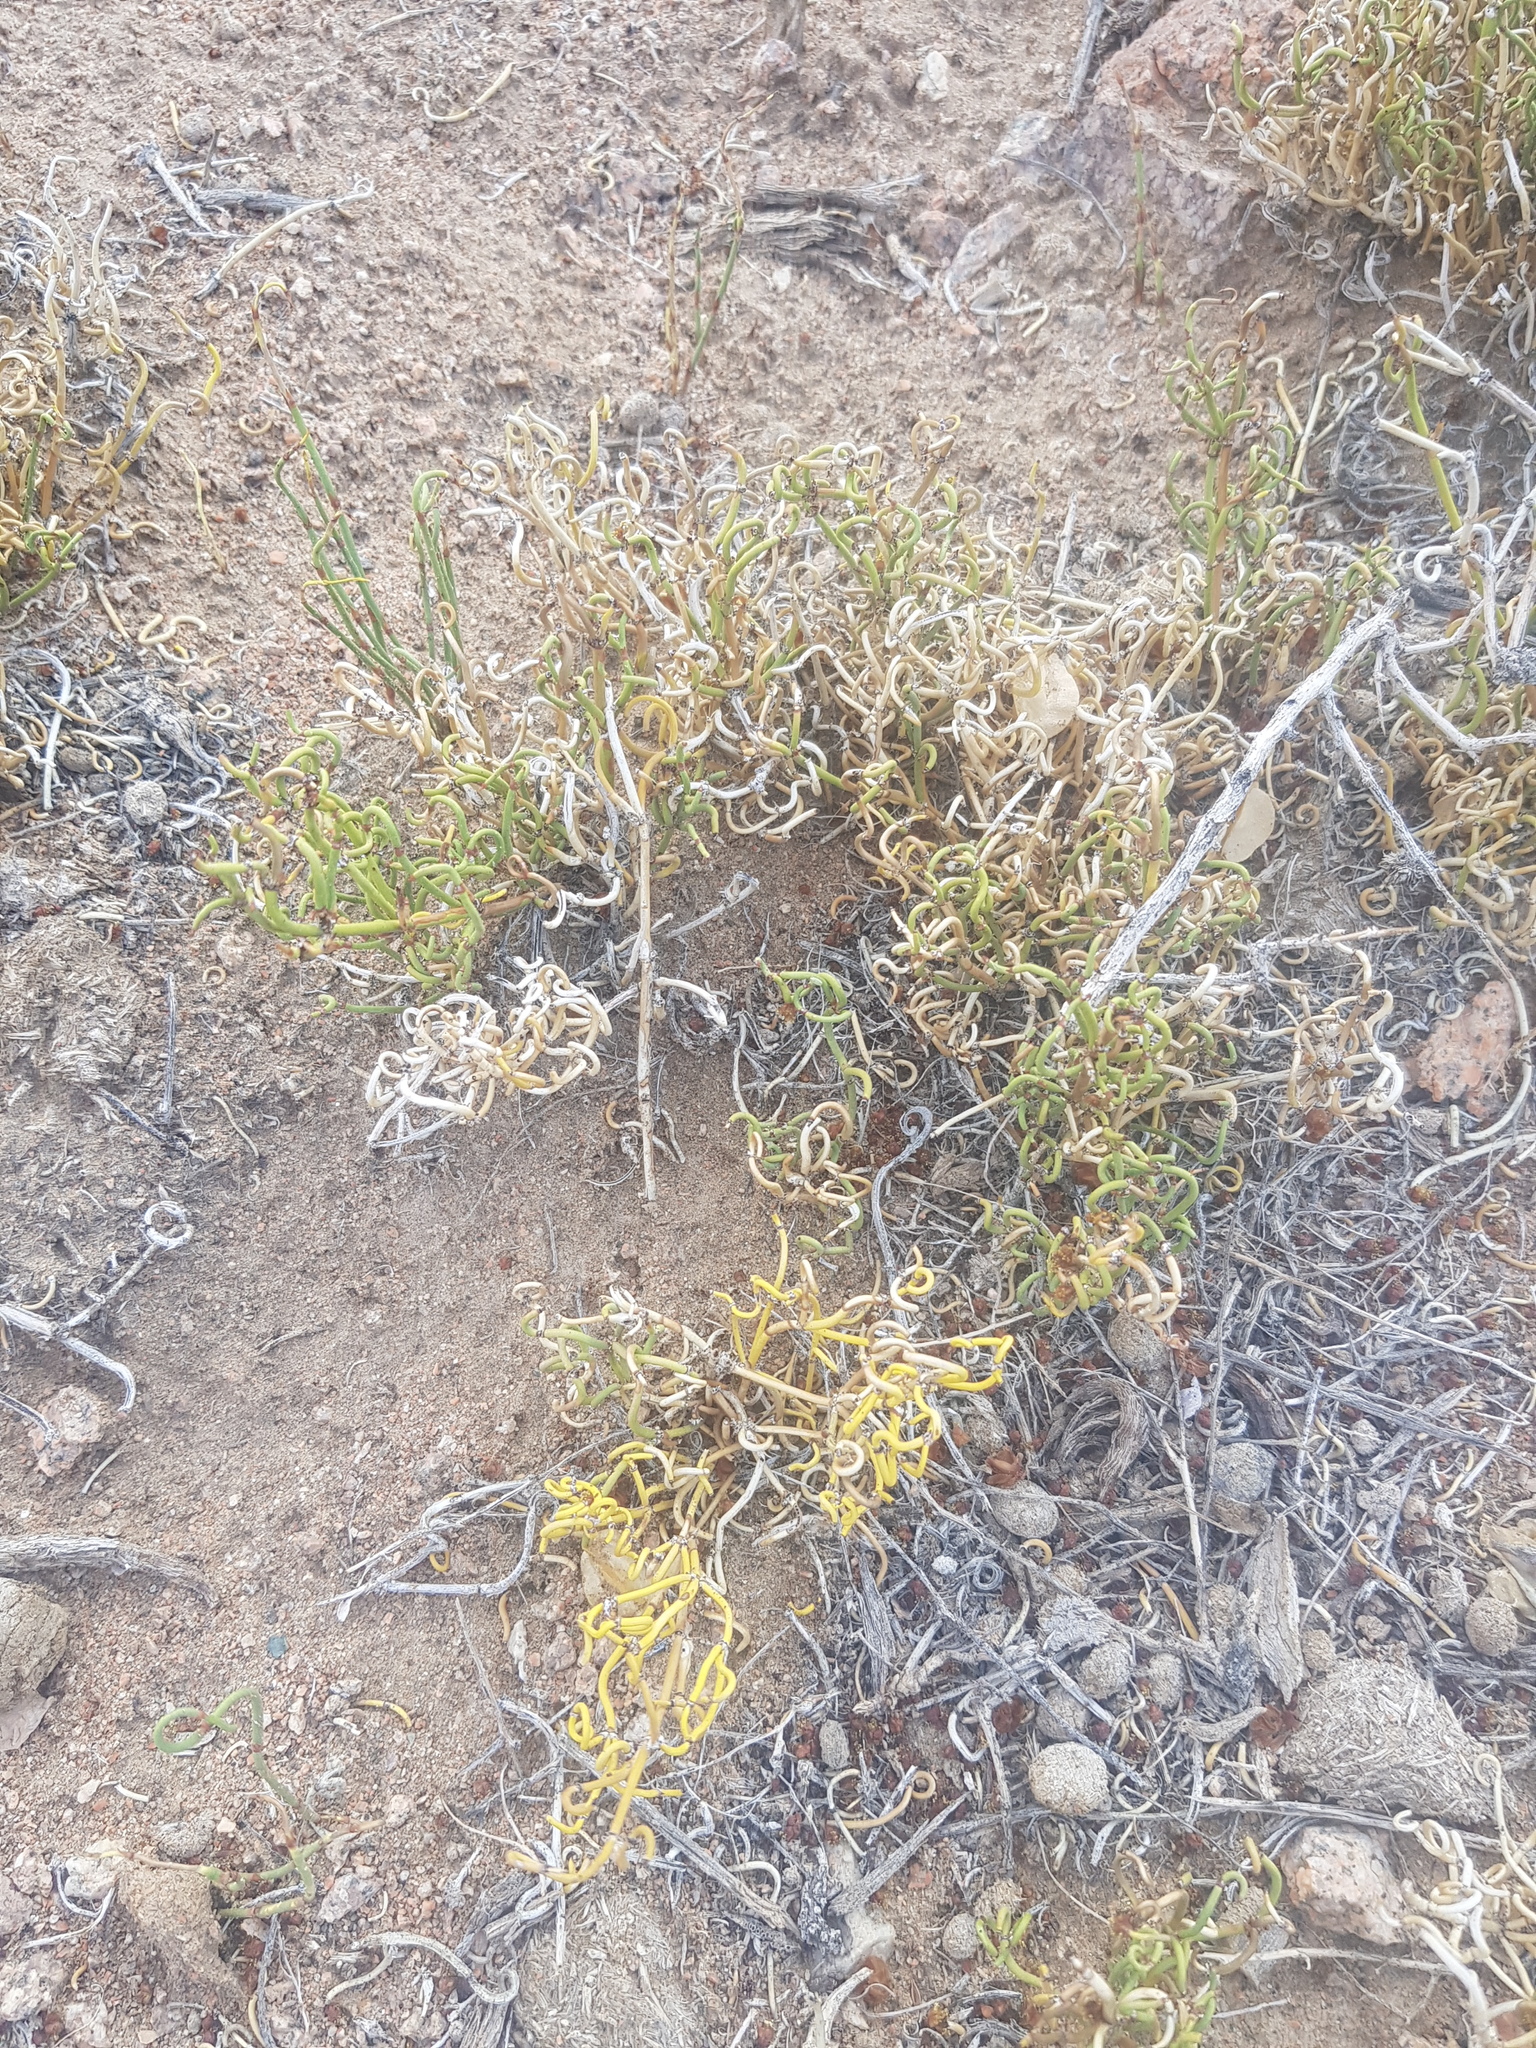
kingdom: Plantae
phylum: Tracheophyta
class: Gnetopsida
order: Ephedrales
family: Ephedraceae
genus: Ephedra
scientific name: Ephedra przewalskii
